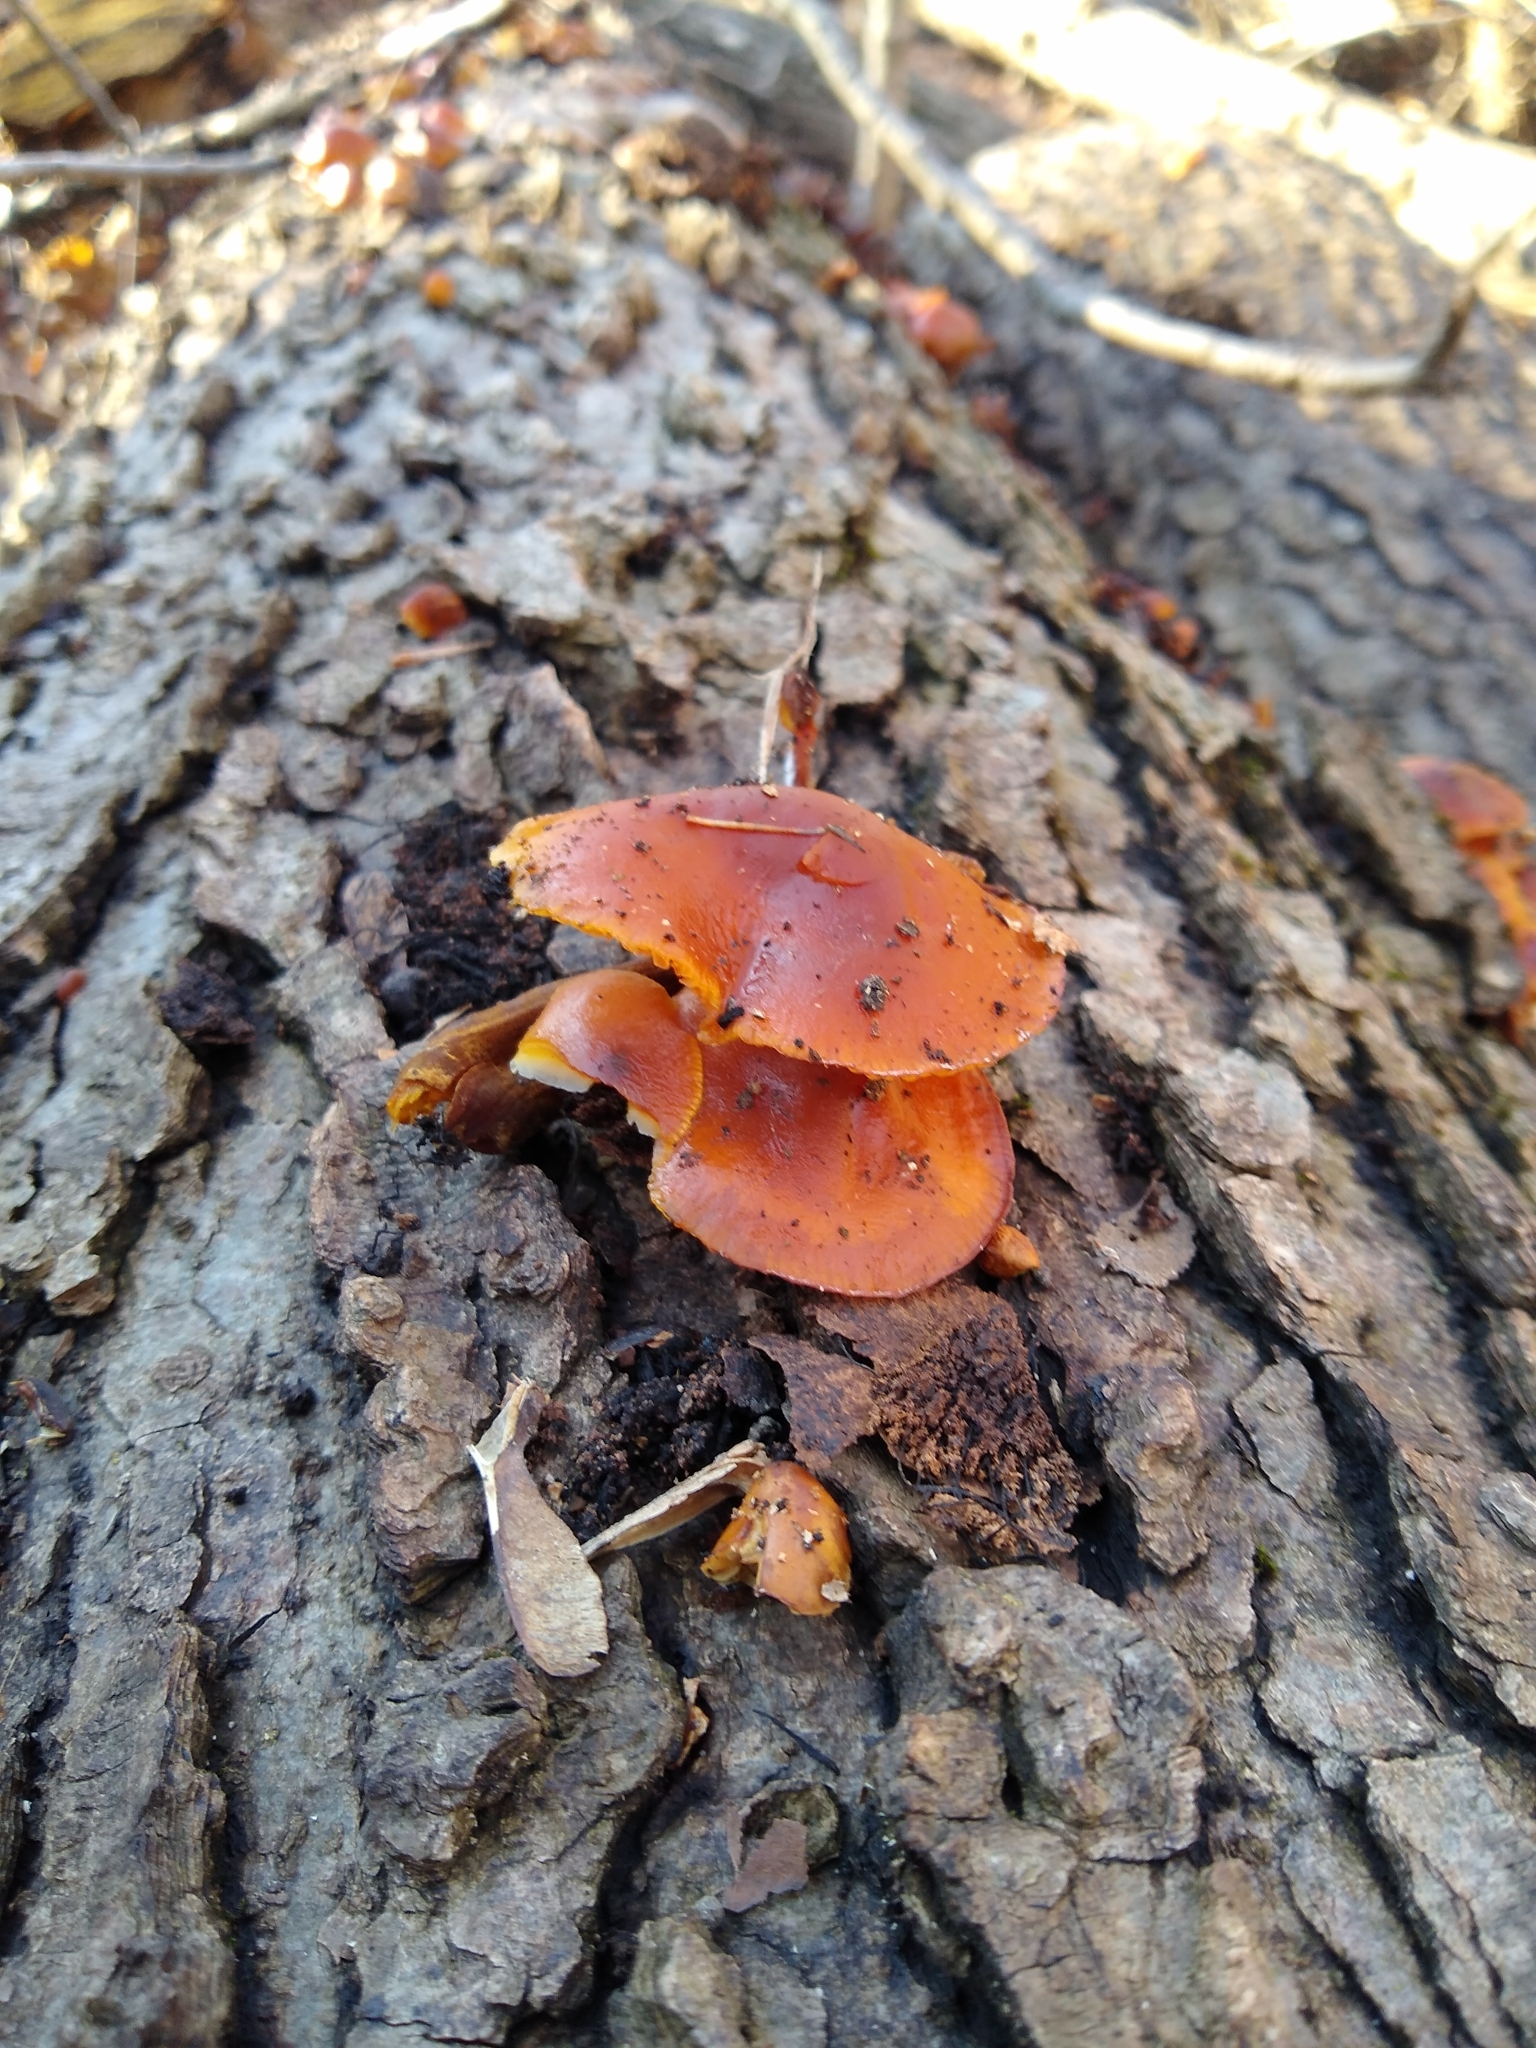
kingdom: Fungi
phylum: Basidiomycota
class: Agaricomycetes
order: Agaricales
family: Physalacriaceae
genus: Flammulina
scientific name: Flammulina velutipes
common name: Velvet shank
